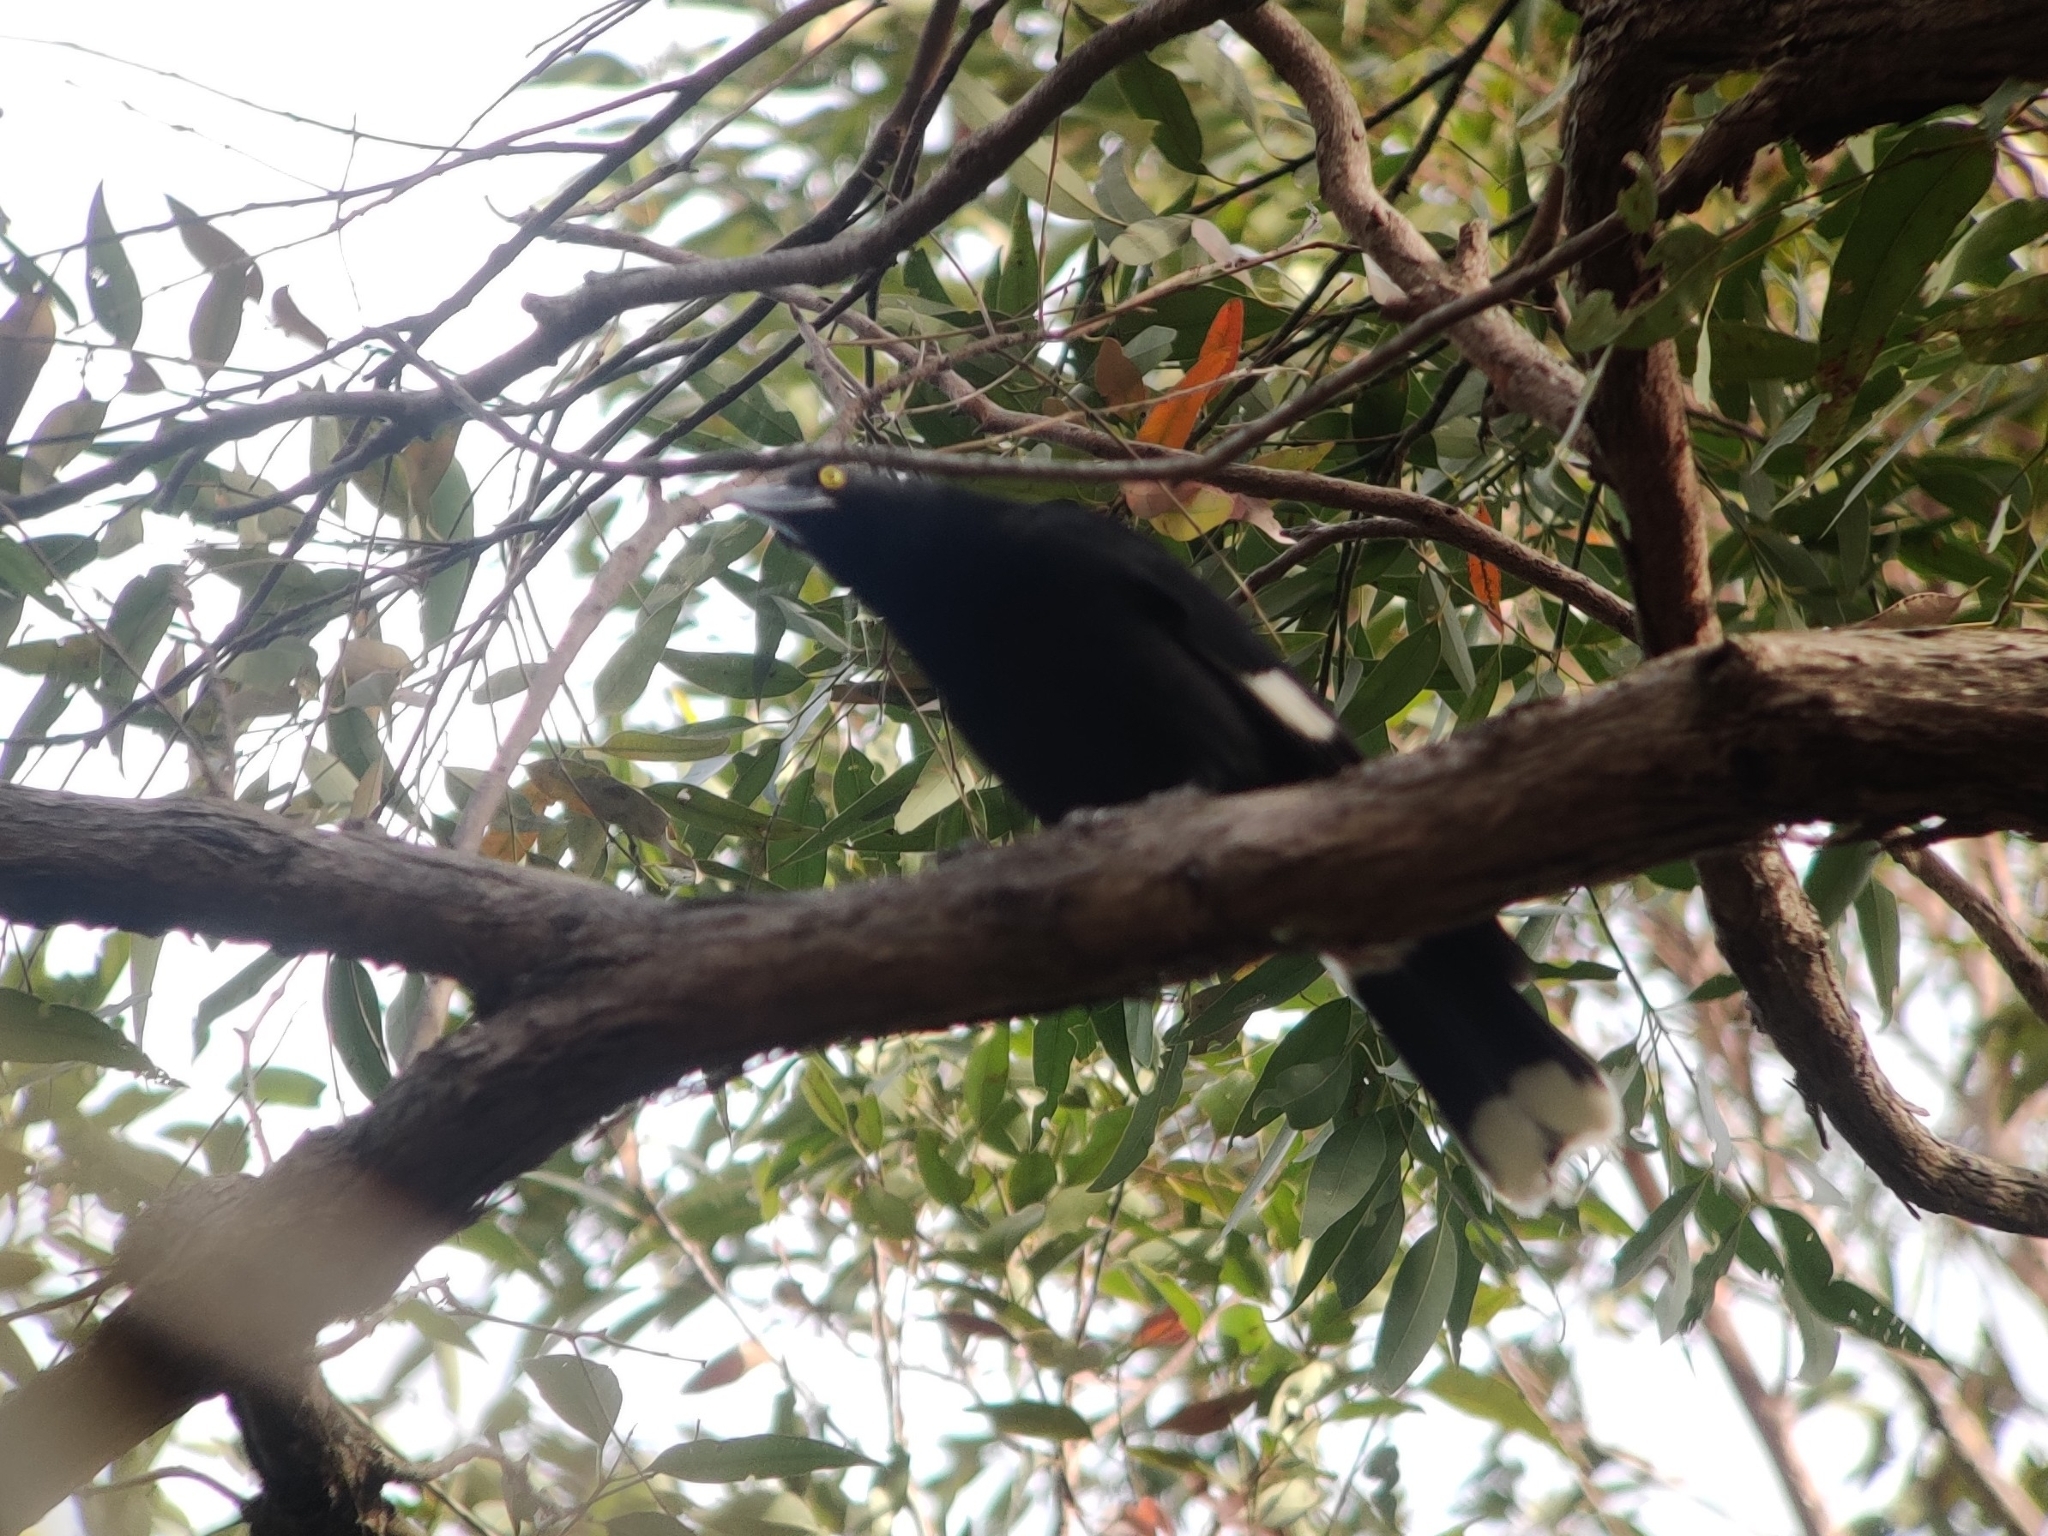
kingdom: Animalia
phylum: Chordata
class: Aves
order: Passeriformes
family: Cracticidae
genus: Strepera
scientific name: Strepera graculina
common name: Pied currawong
